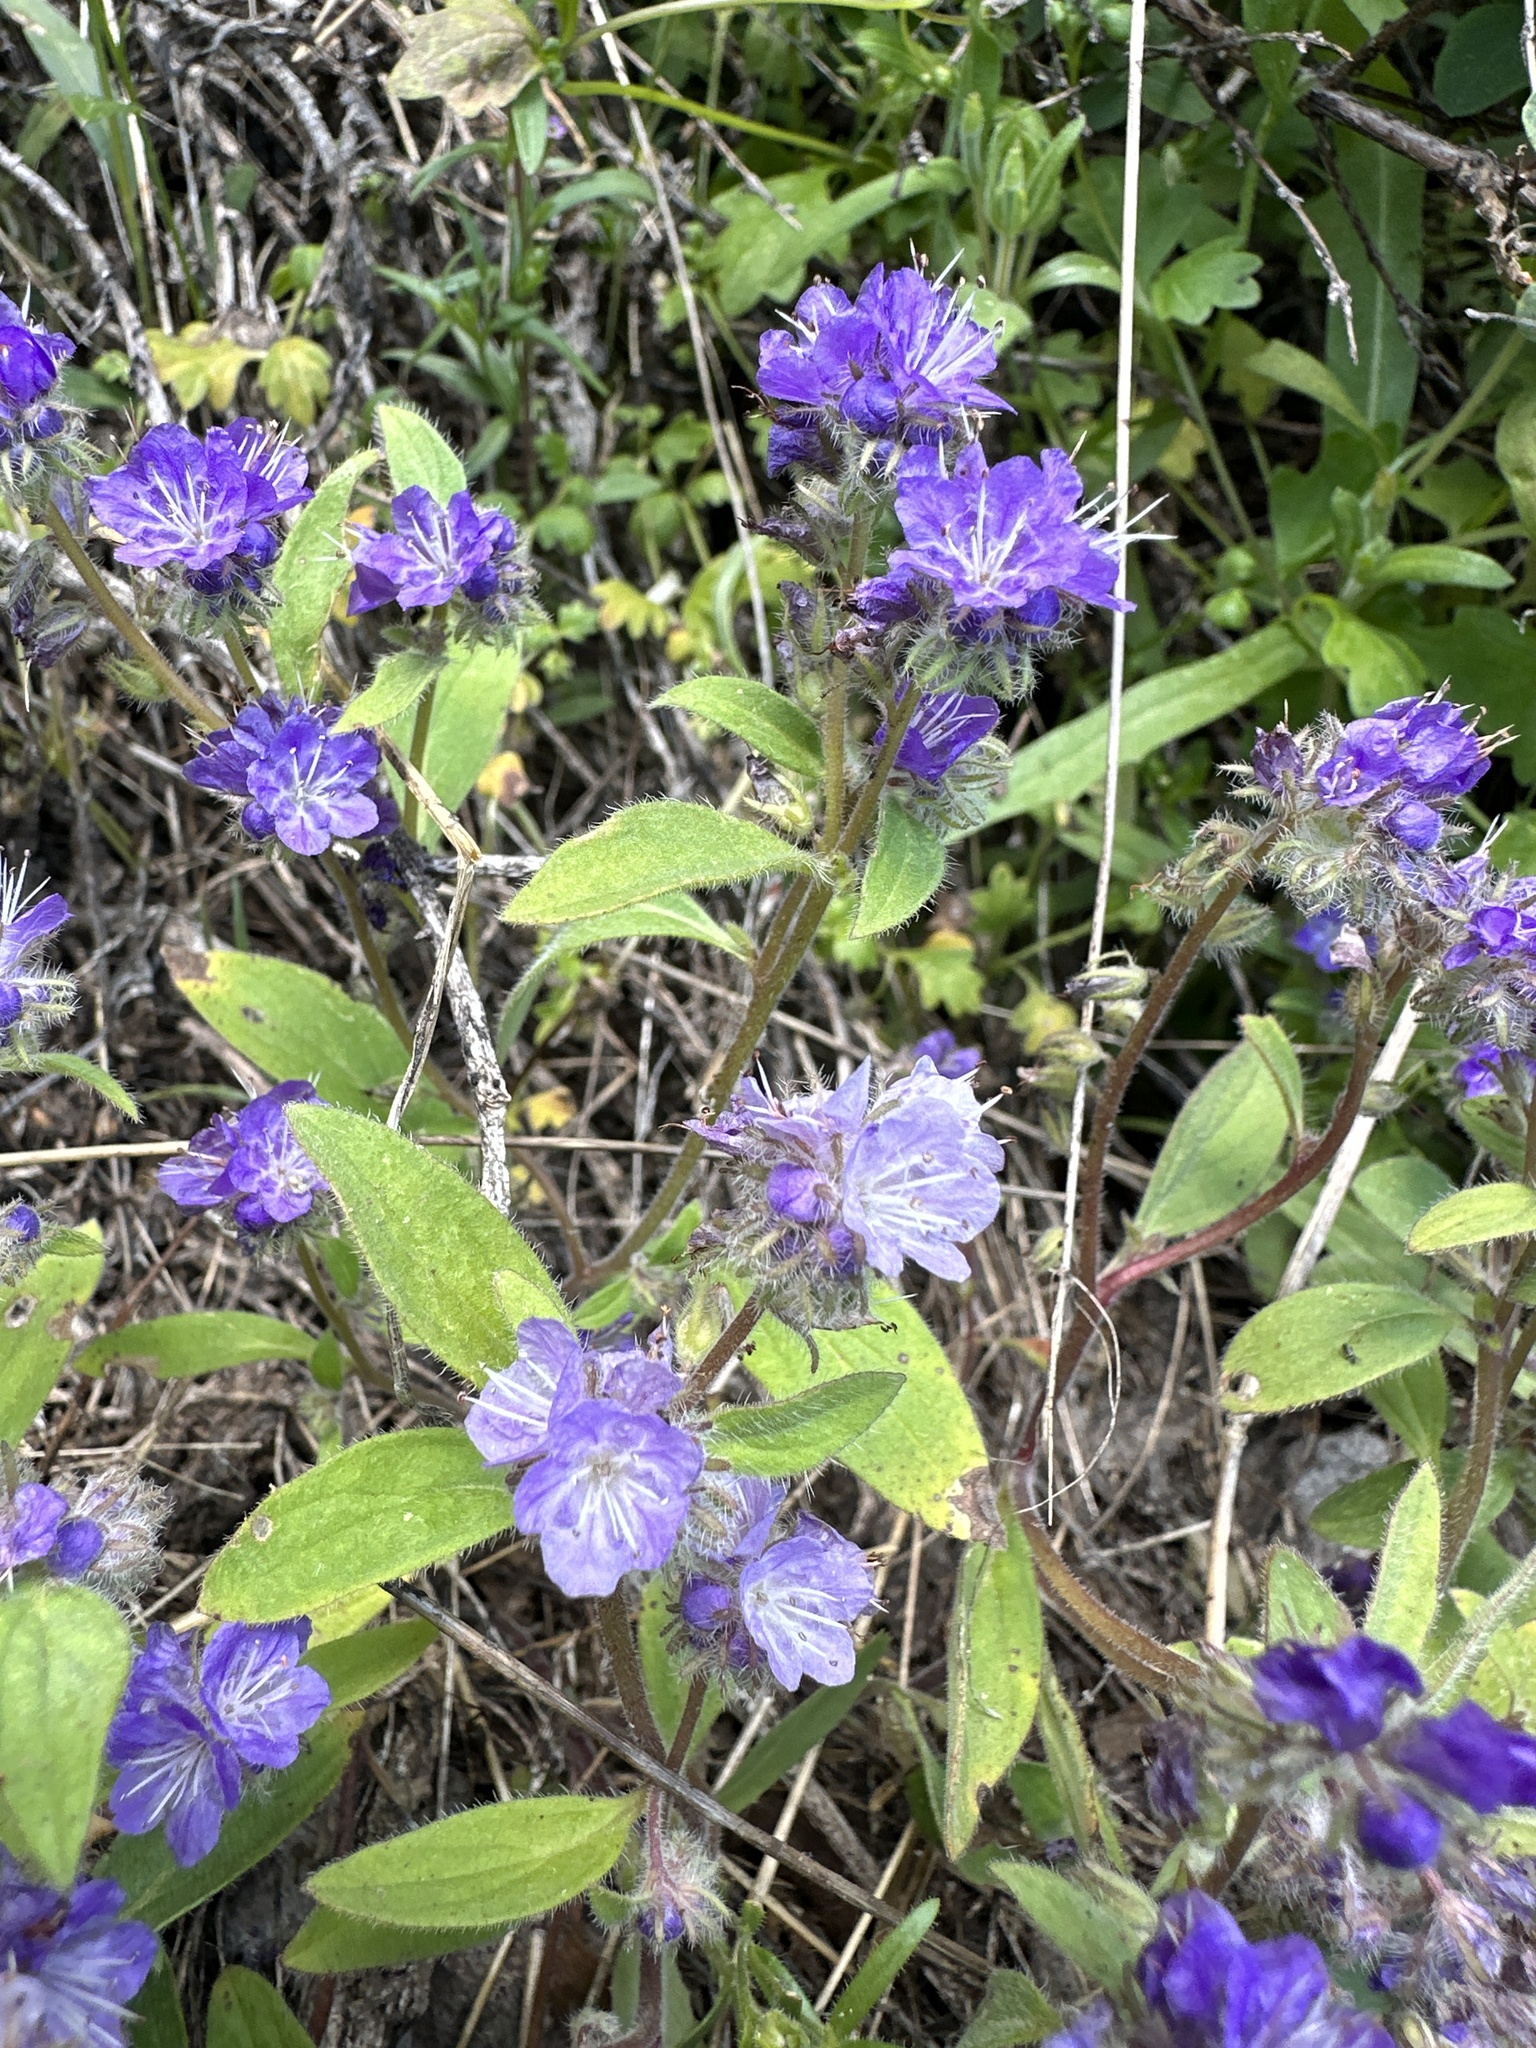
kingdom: Plantae
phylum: Tracheophyta
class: Magnoliopsida
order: Boraginales
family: Hydrophyllaceae
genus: Phacelia
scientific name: Phacelia humilis
